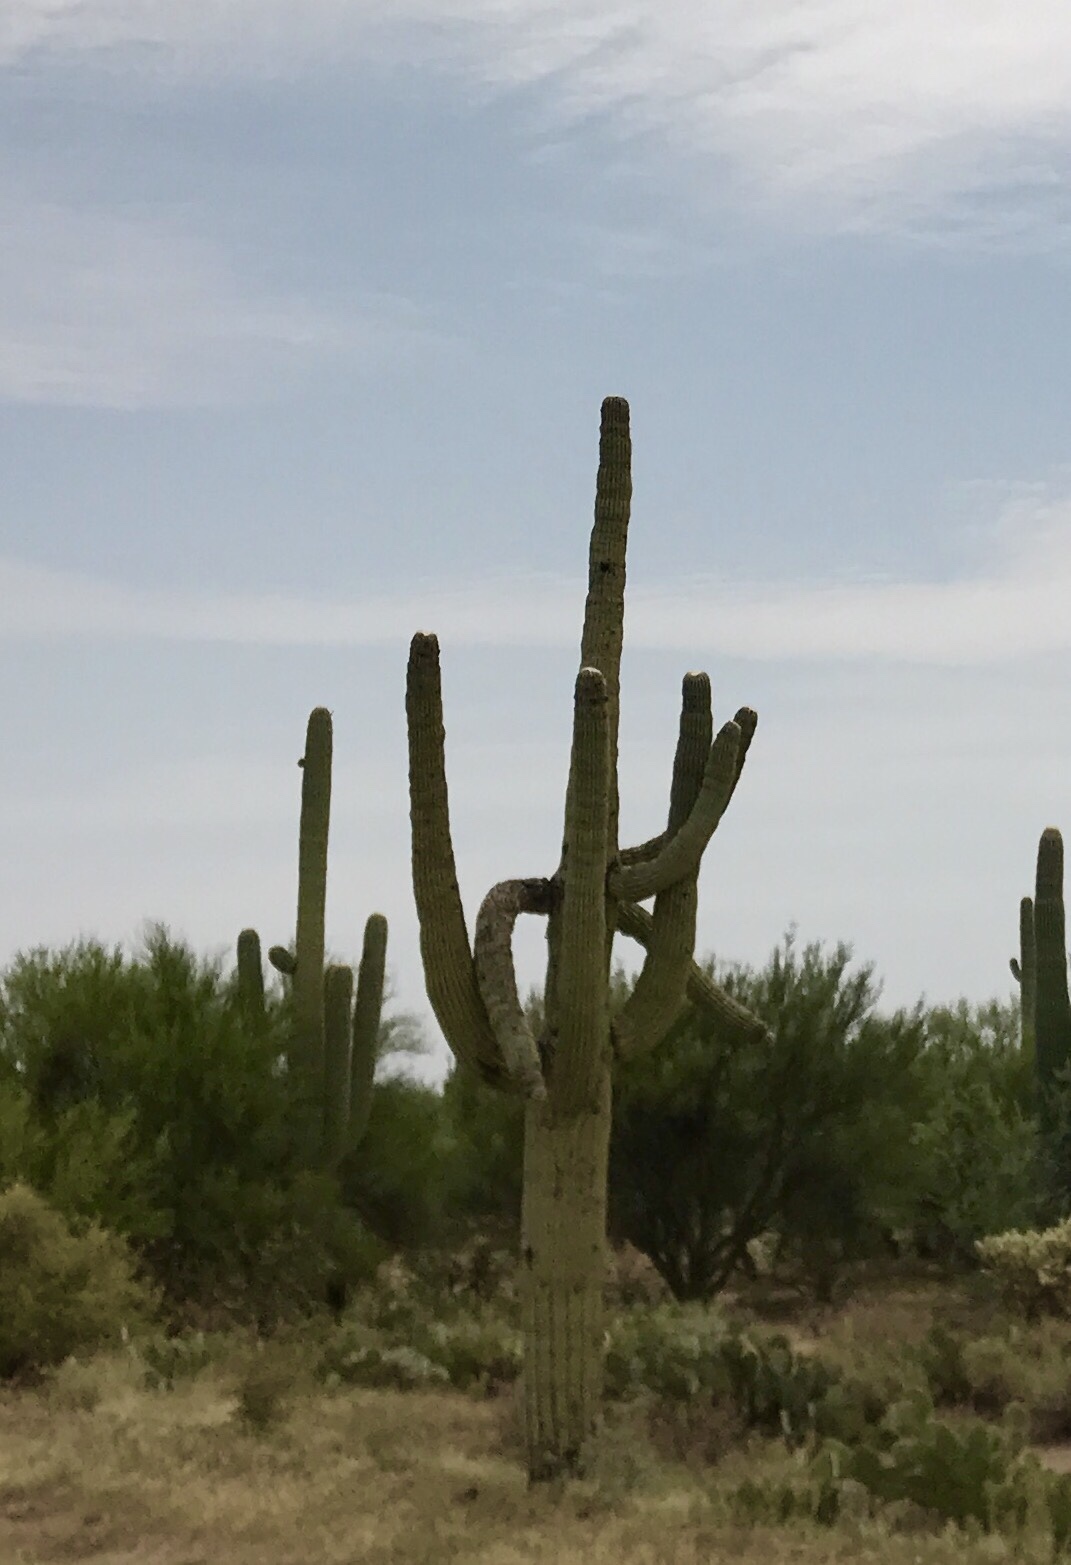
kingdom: Plantae
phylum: Tracheophyta
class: Magnoliopsida
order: Caryophyllales
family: Cactaceae
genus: Carnegiea
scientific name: Carnegiea gigantea
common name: Saguaro
